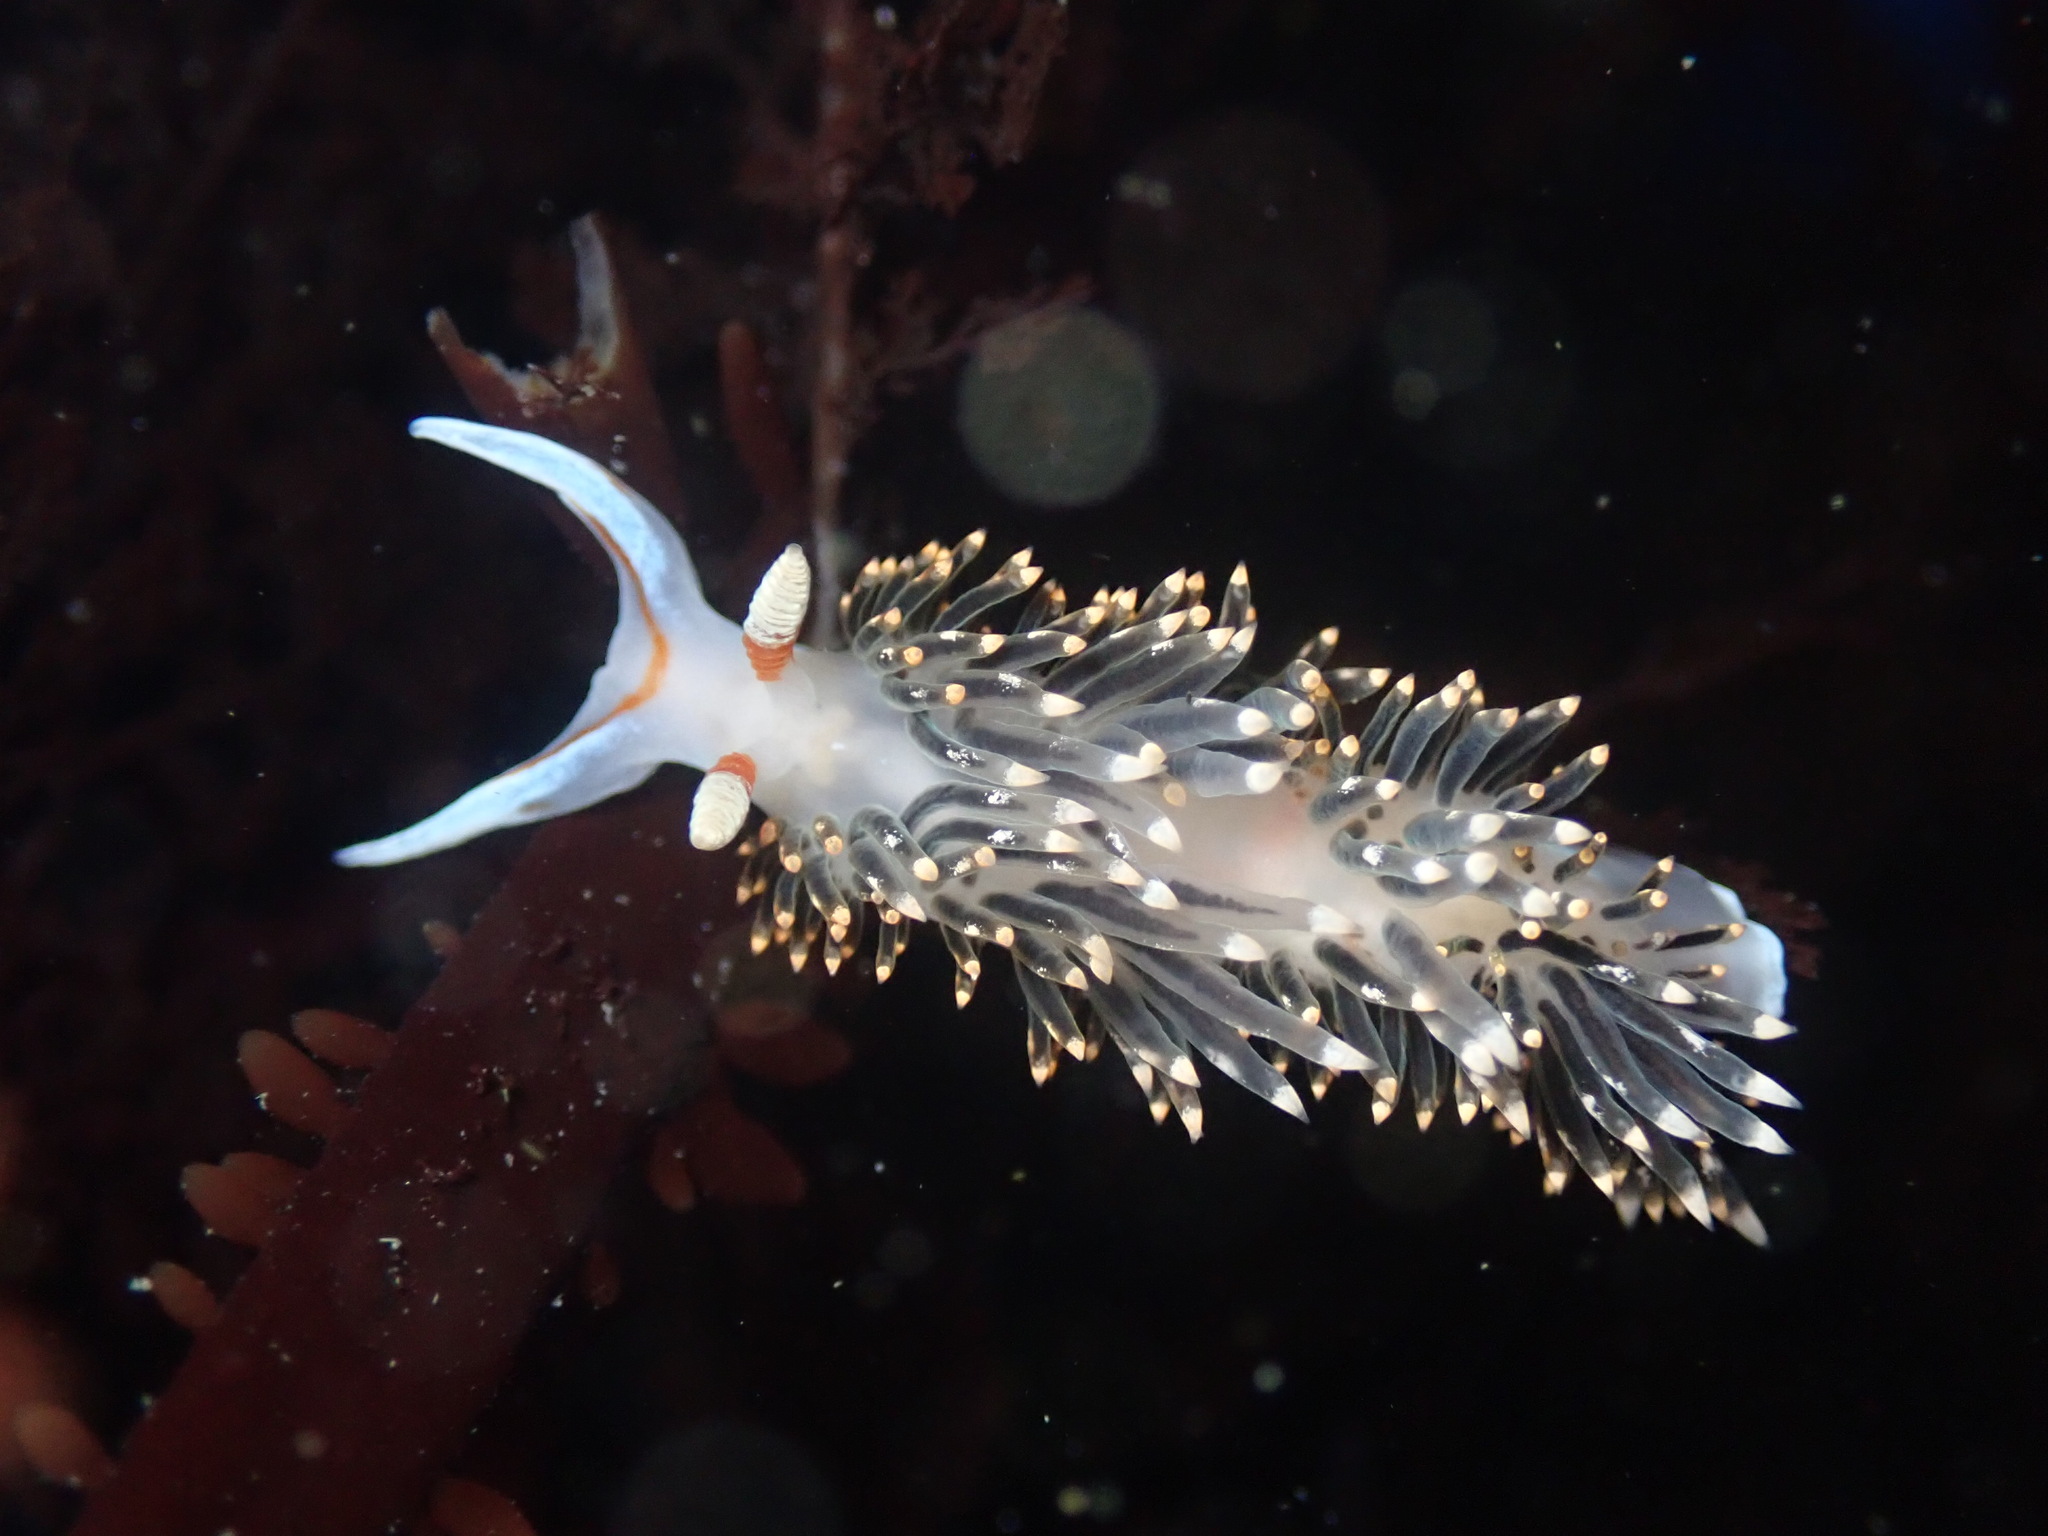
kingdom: Animalia
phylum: Mollusca
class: Gastropoda
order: Nudibranchia
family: Facelinidae
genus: Phidiana
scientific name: Phidiana hiltoni
